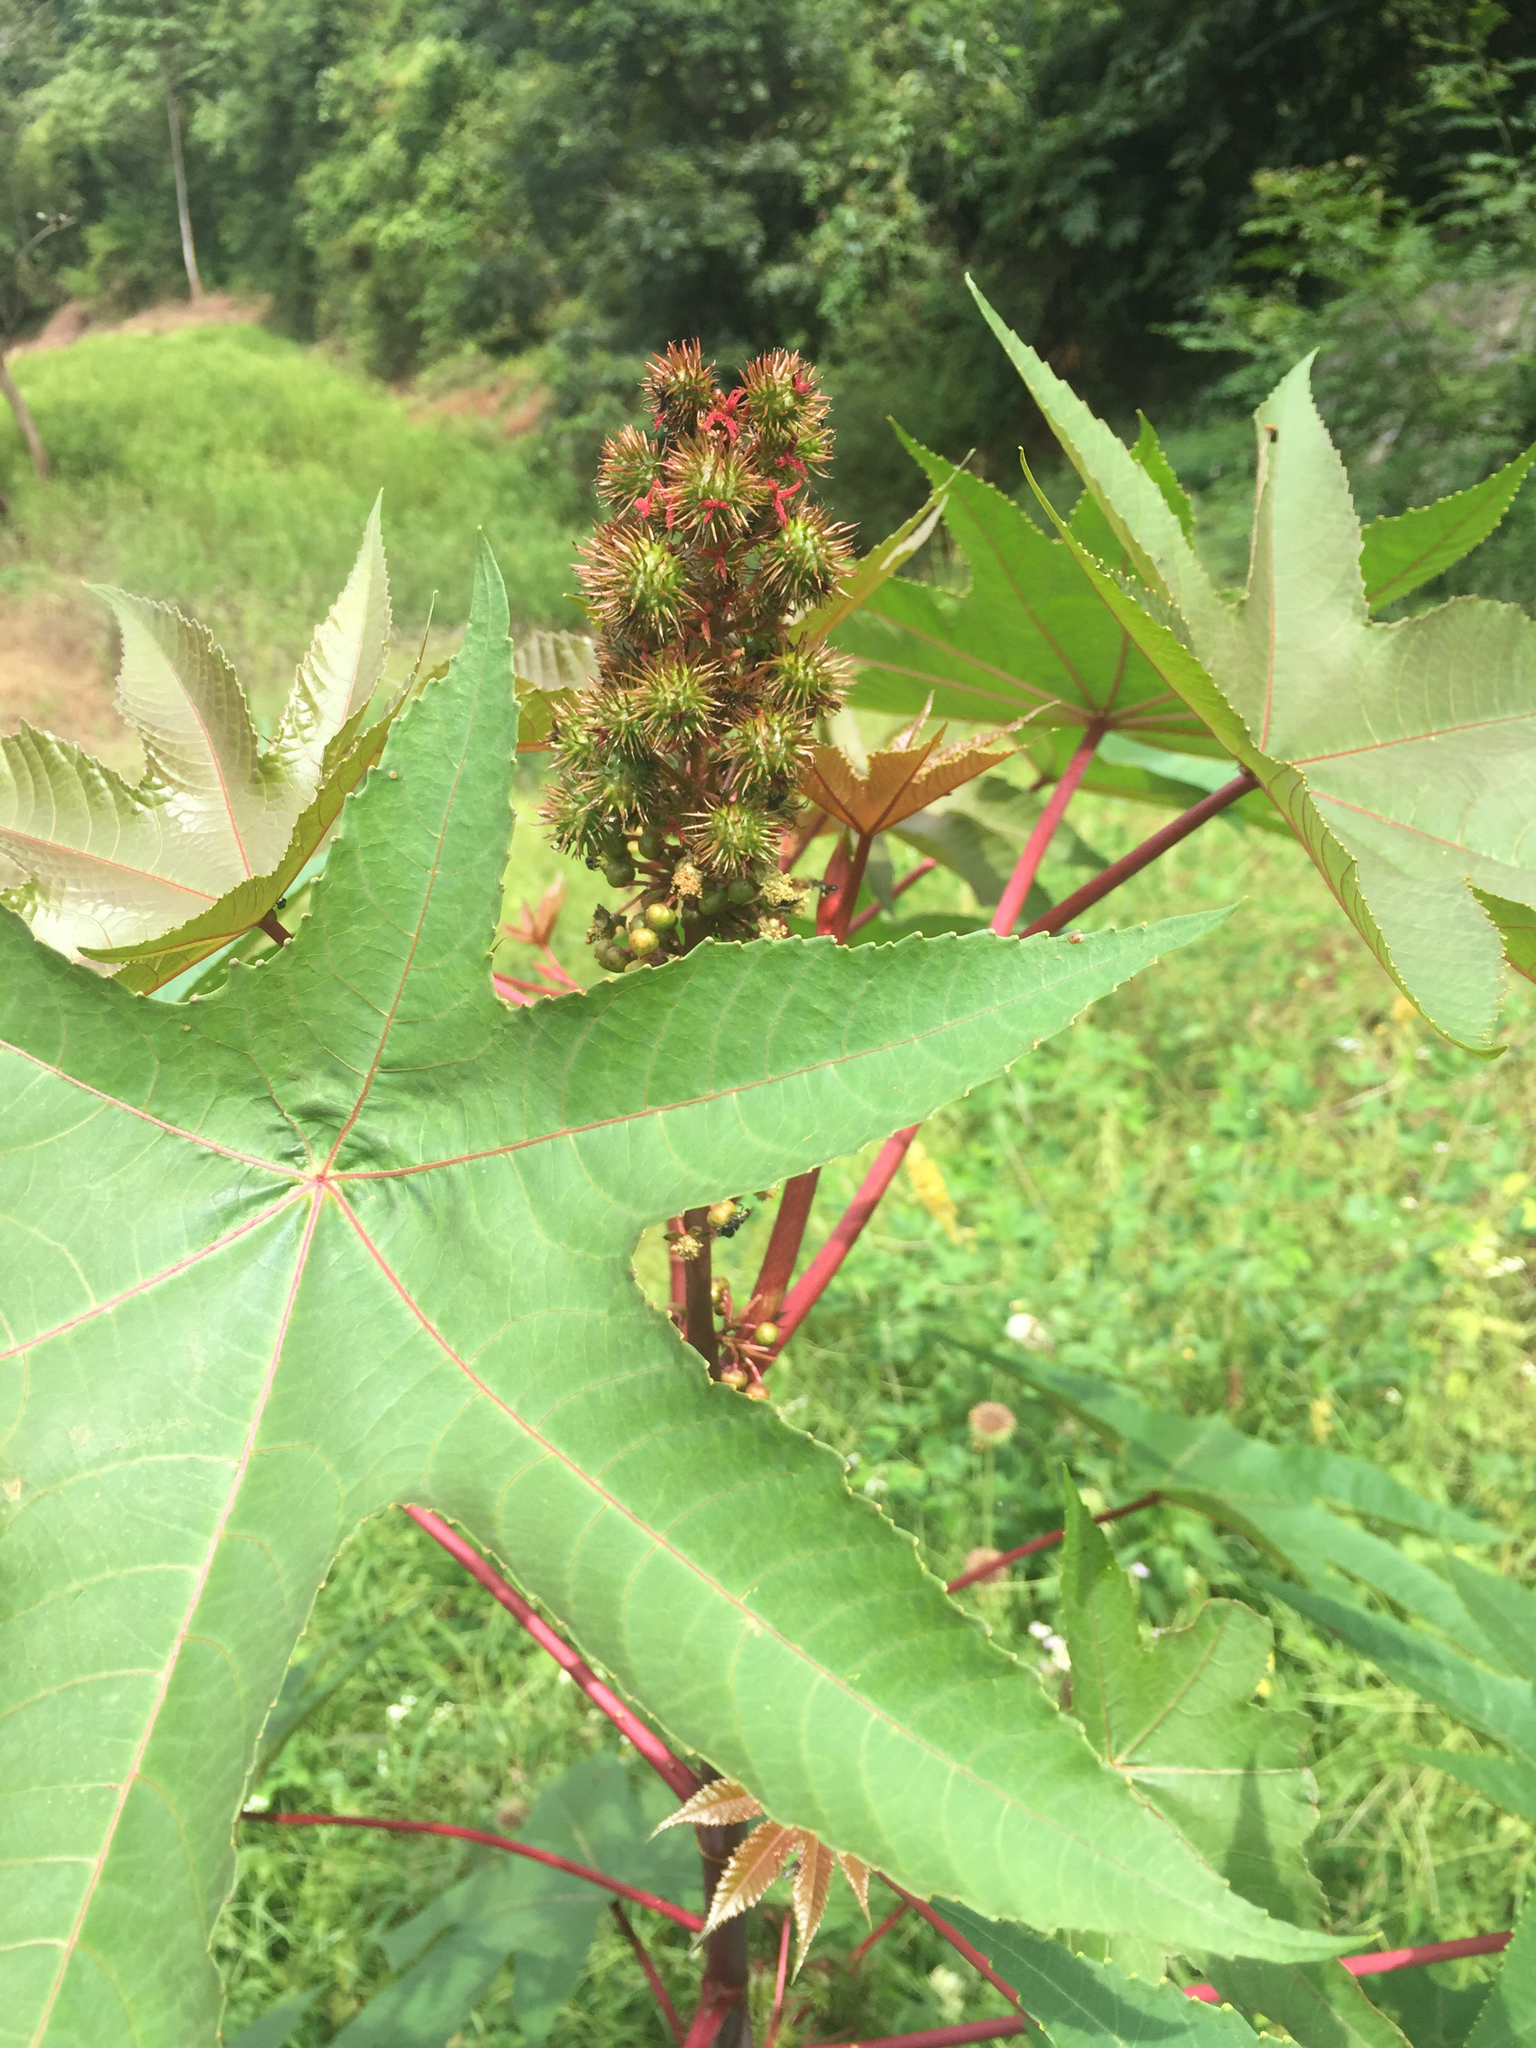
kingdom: Plantae
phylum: Tracheophyta
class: Magnoliopsida
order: Malpighiales
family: Euphorbiaceae
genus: Ricinus
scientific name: Ricinus communis
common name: Castor-oil-plant
